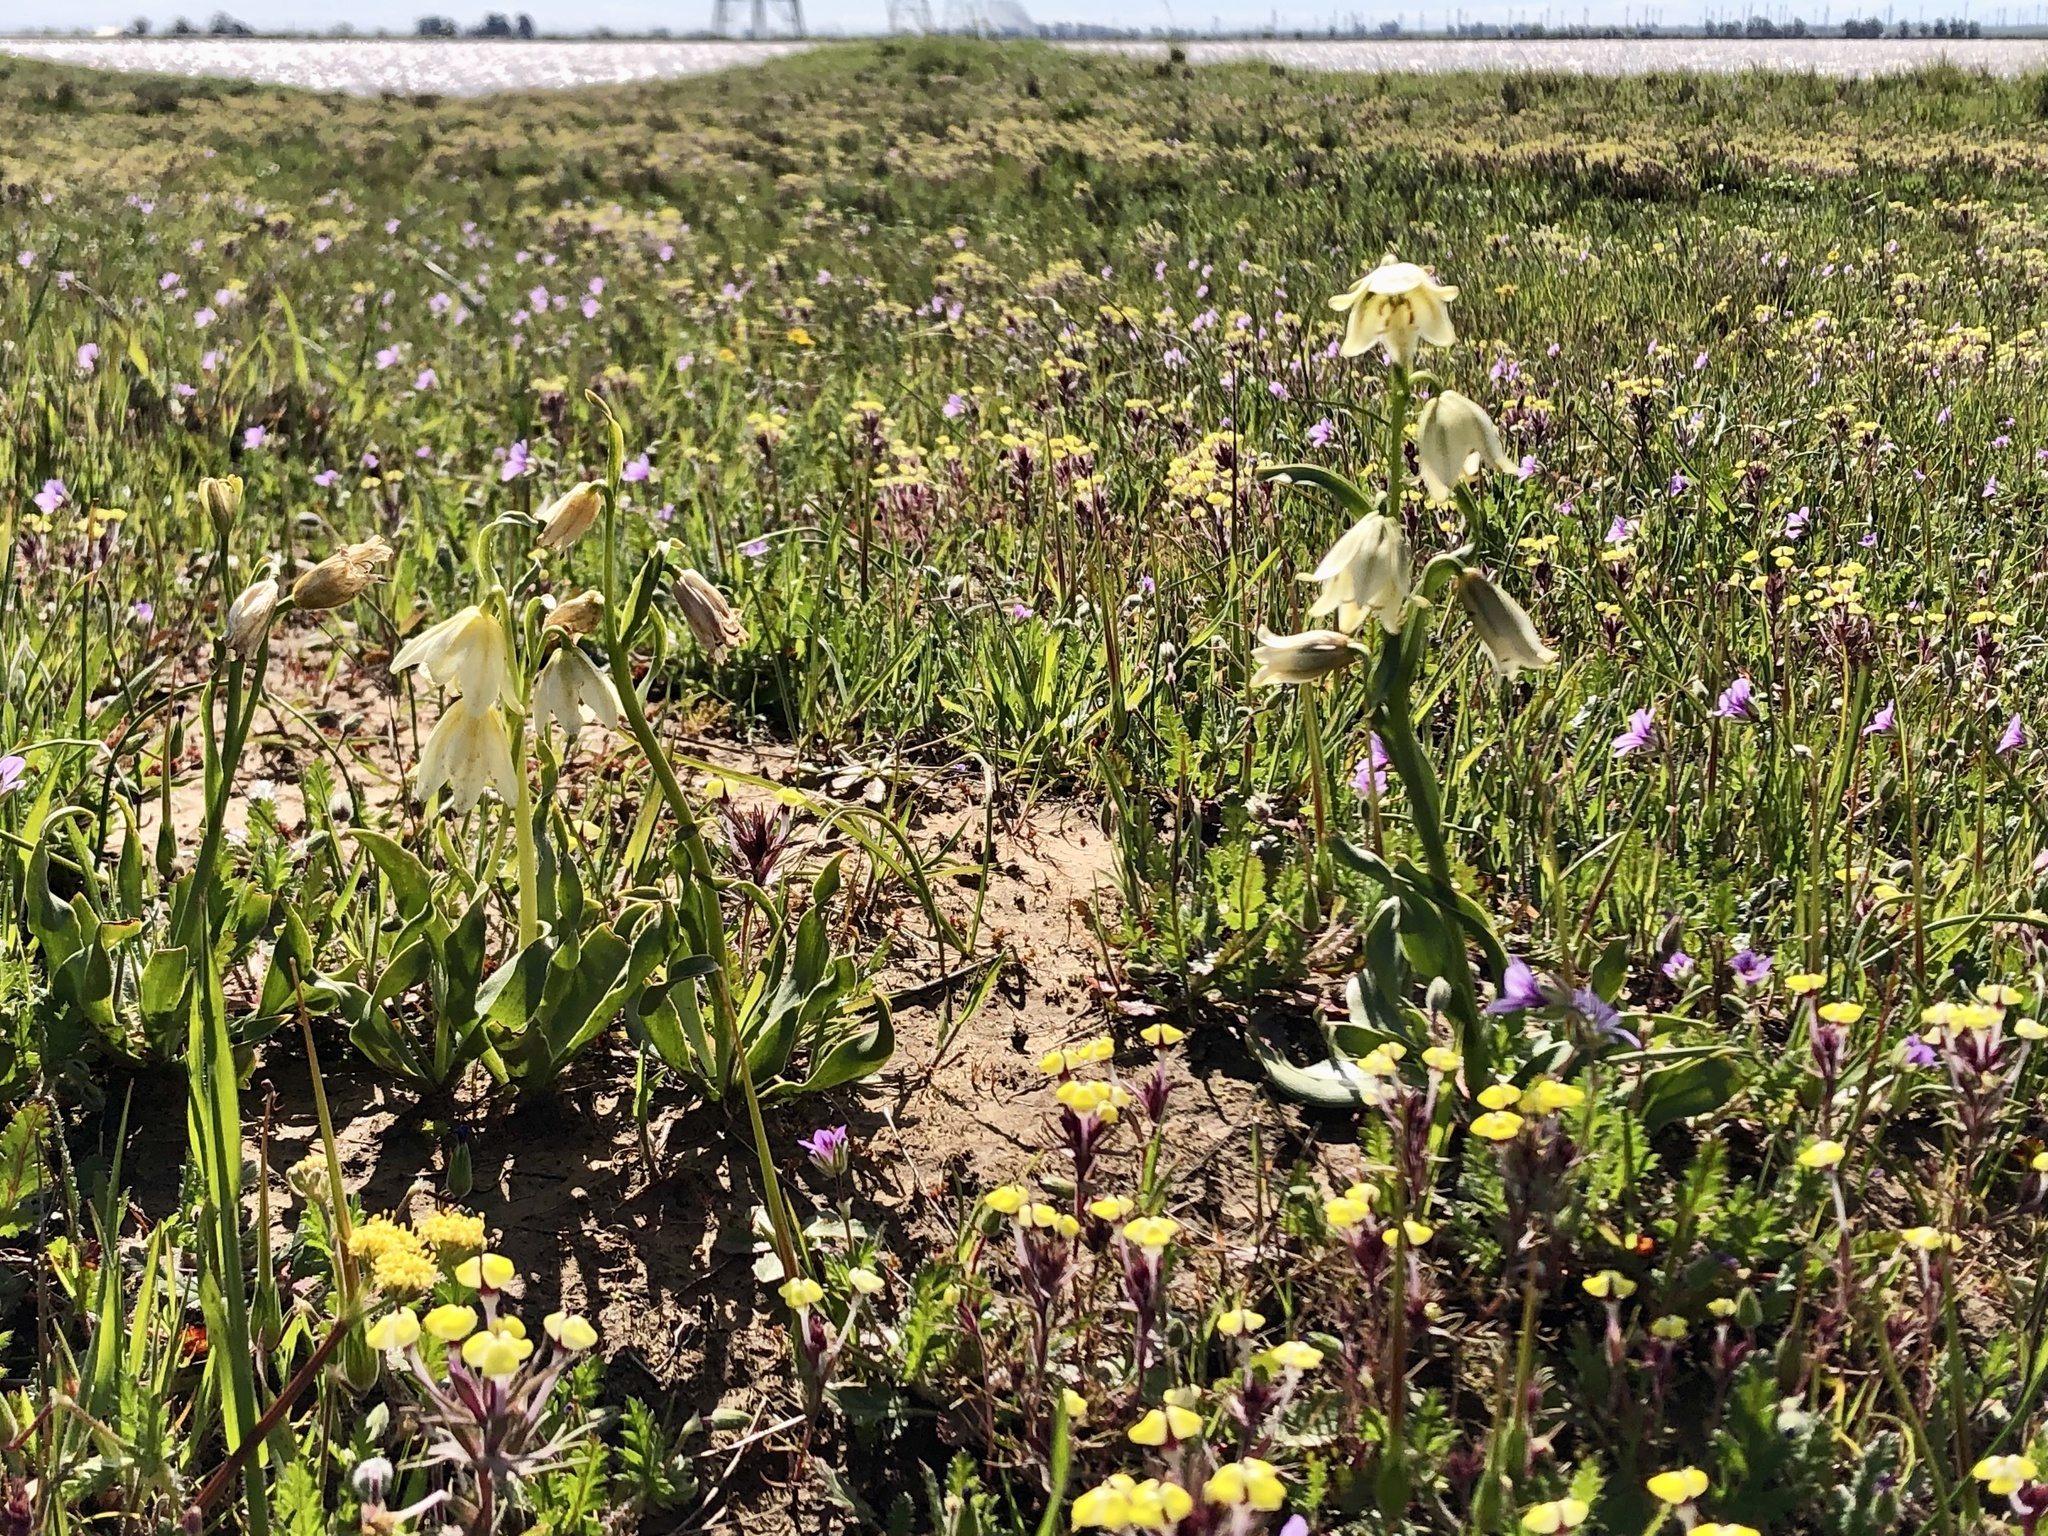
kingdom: Plantae
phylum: Tracheophyta
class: Liliopsida
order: Liliales
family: Liliaceae
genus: Fritillaria
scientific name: Fritillaria liliacea
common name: Fragrant fritillary
